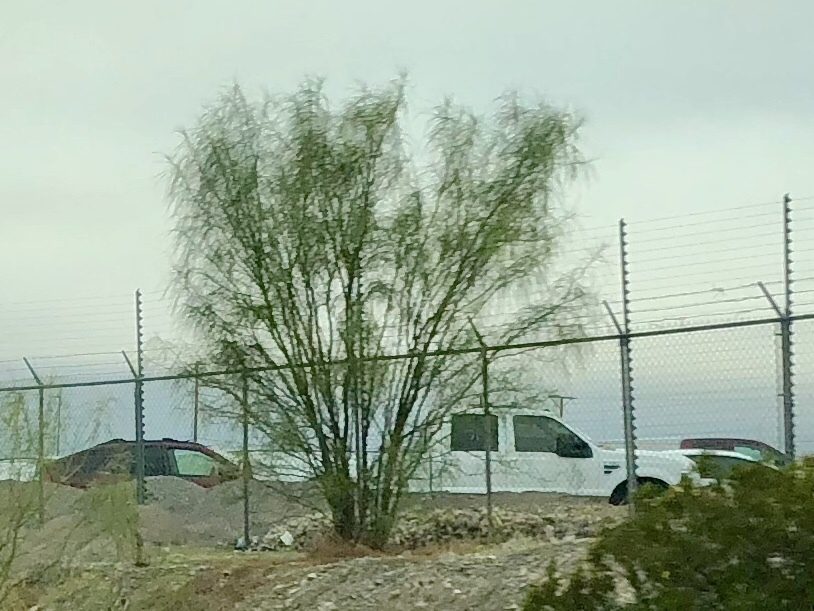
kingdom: Plantae
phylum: Tracheophyta
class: Magnoliopsida
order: Fabales
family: Fabaceae
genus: Parkinsonia
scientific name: Parkinsonia aculeata
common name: Jerusalem thorn
